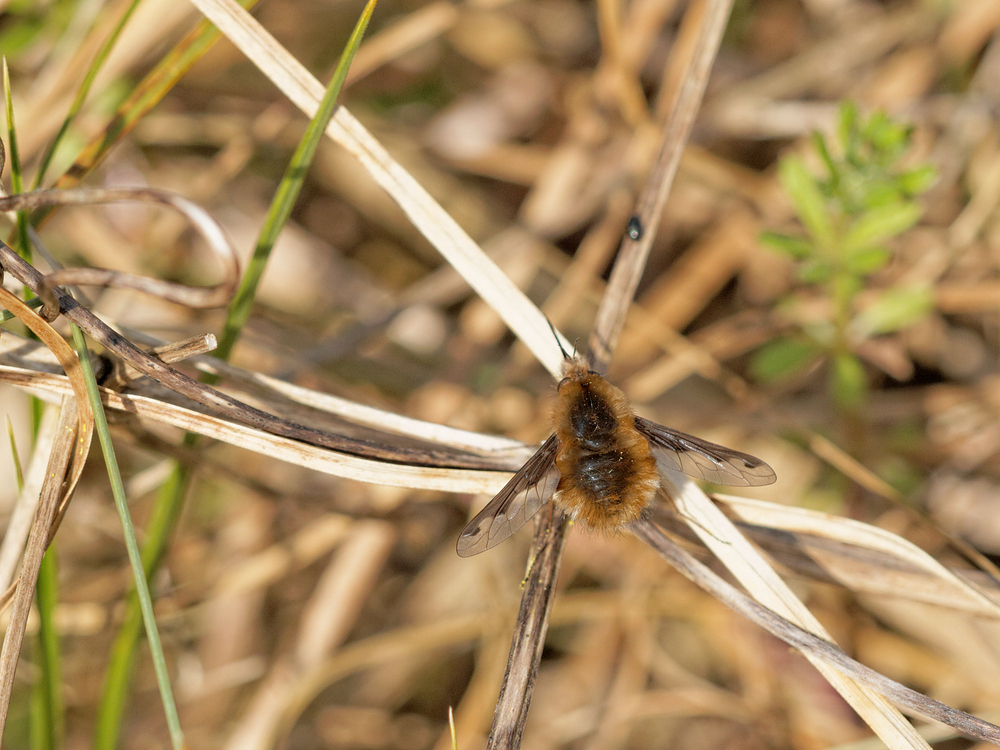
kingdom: Animalia
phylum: Arthropoda
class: Insecta
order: Diptera
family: Bombyliidae
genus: Bombylius
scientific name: Bombylius major
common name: Bee fly
